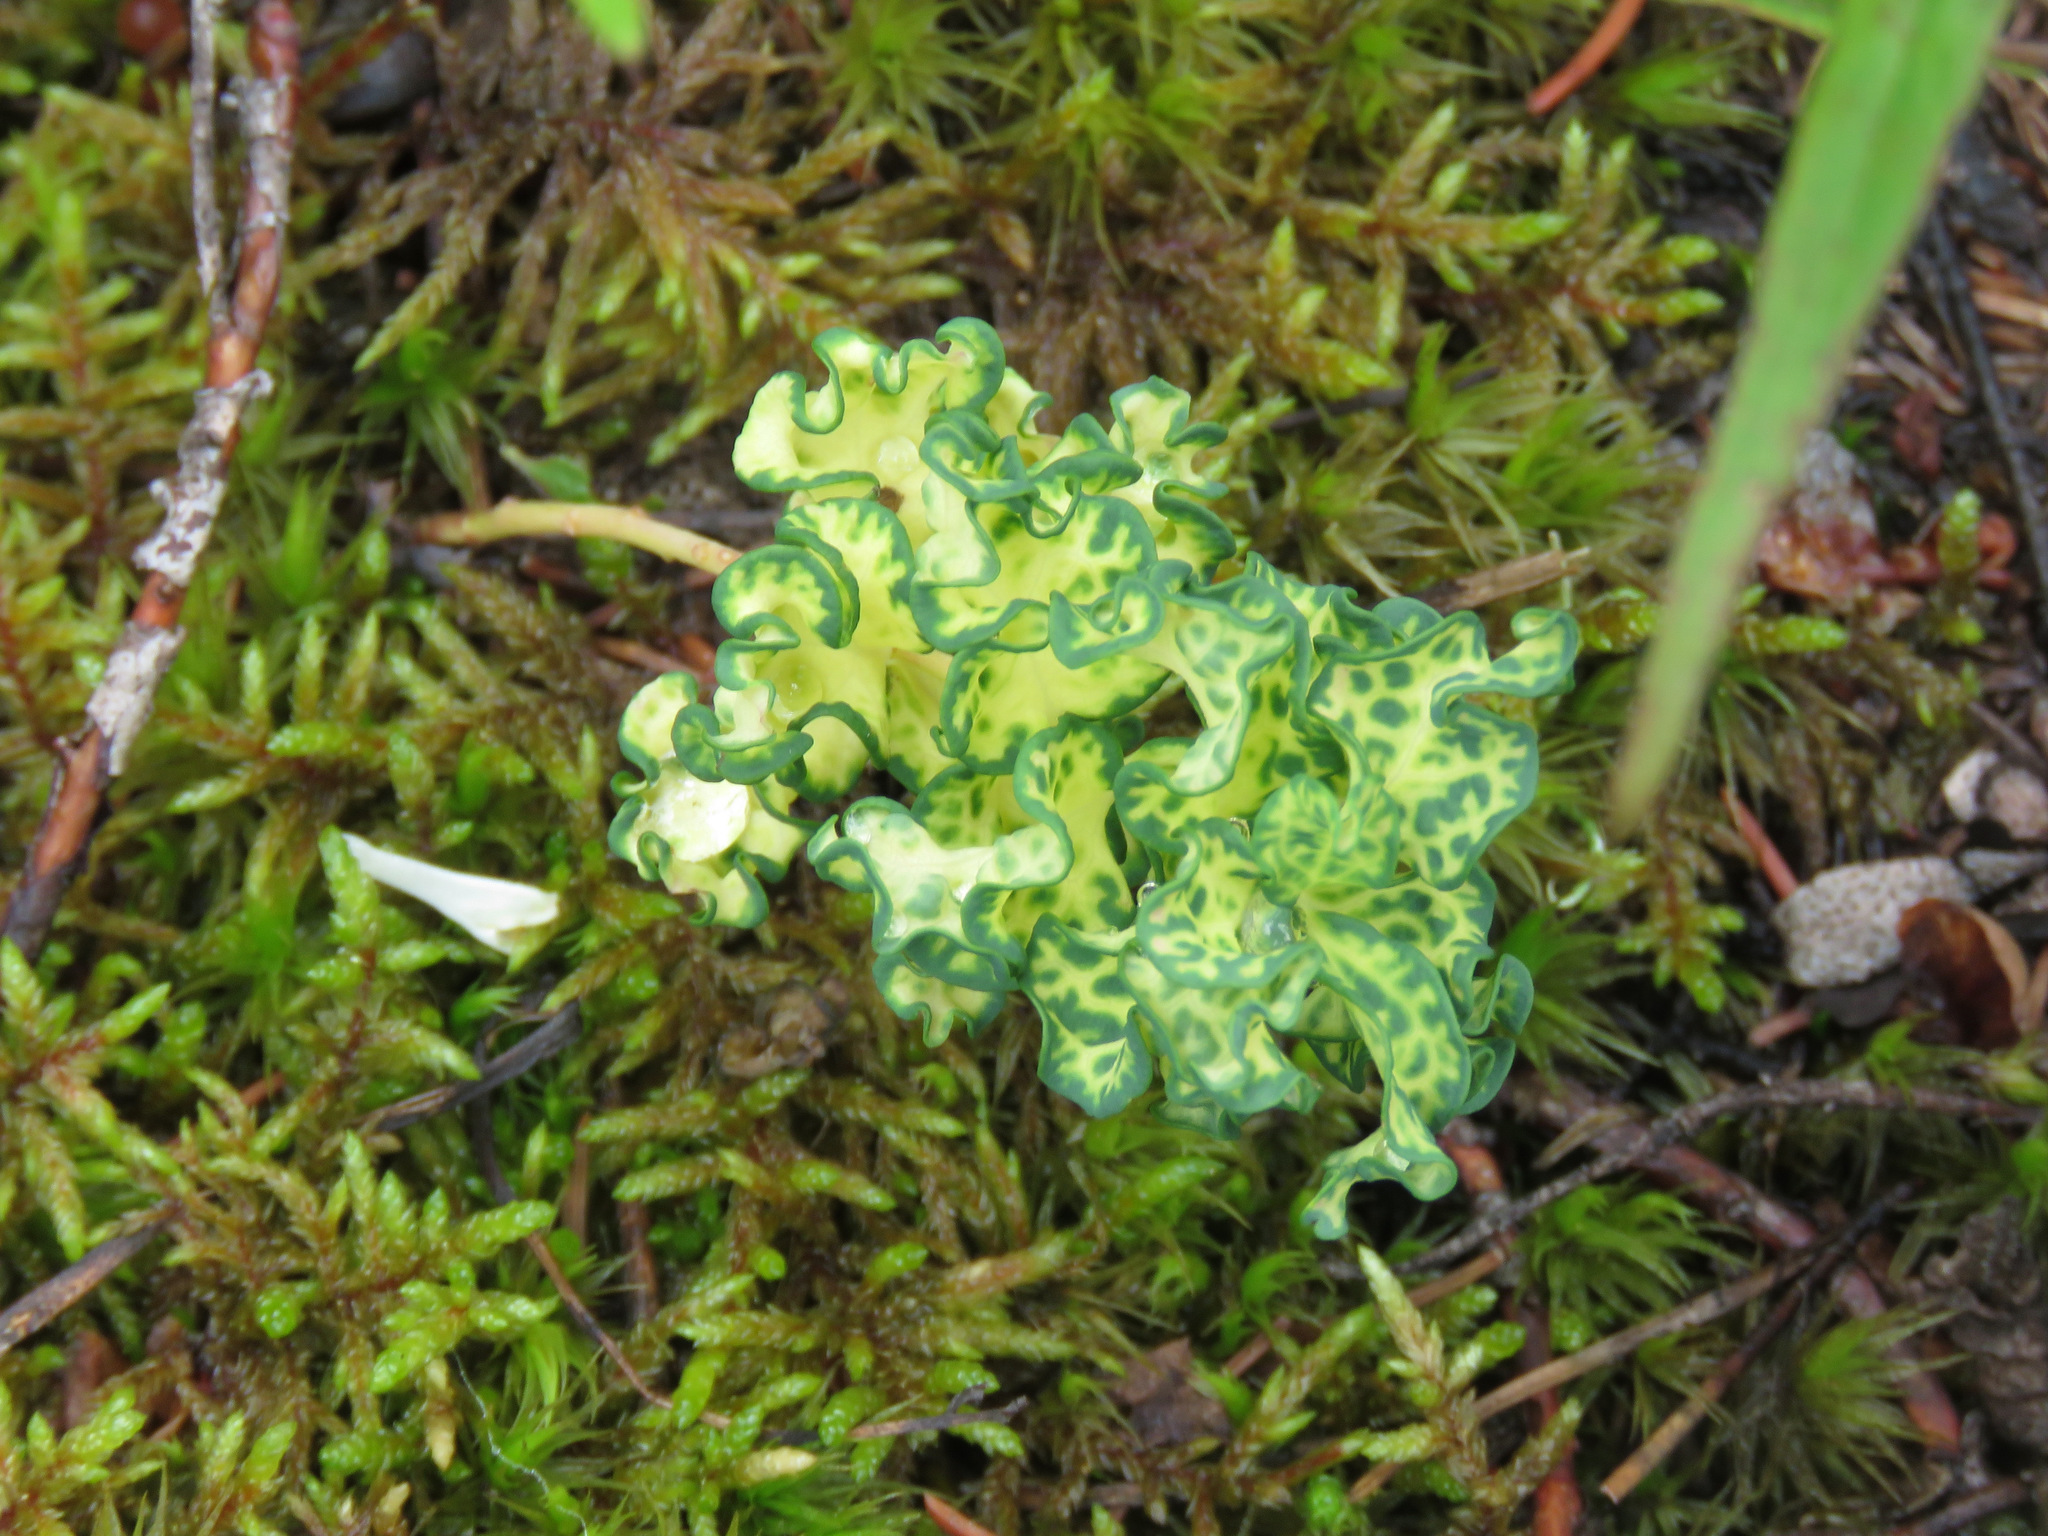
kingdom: Plantae
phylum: Tracheophyta
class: Magnoliopsida
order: Santalales
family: Comandraceae
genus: Geocaulon
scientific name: Geocaulon lividum
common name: Earthberry
